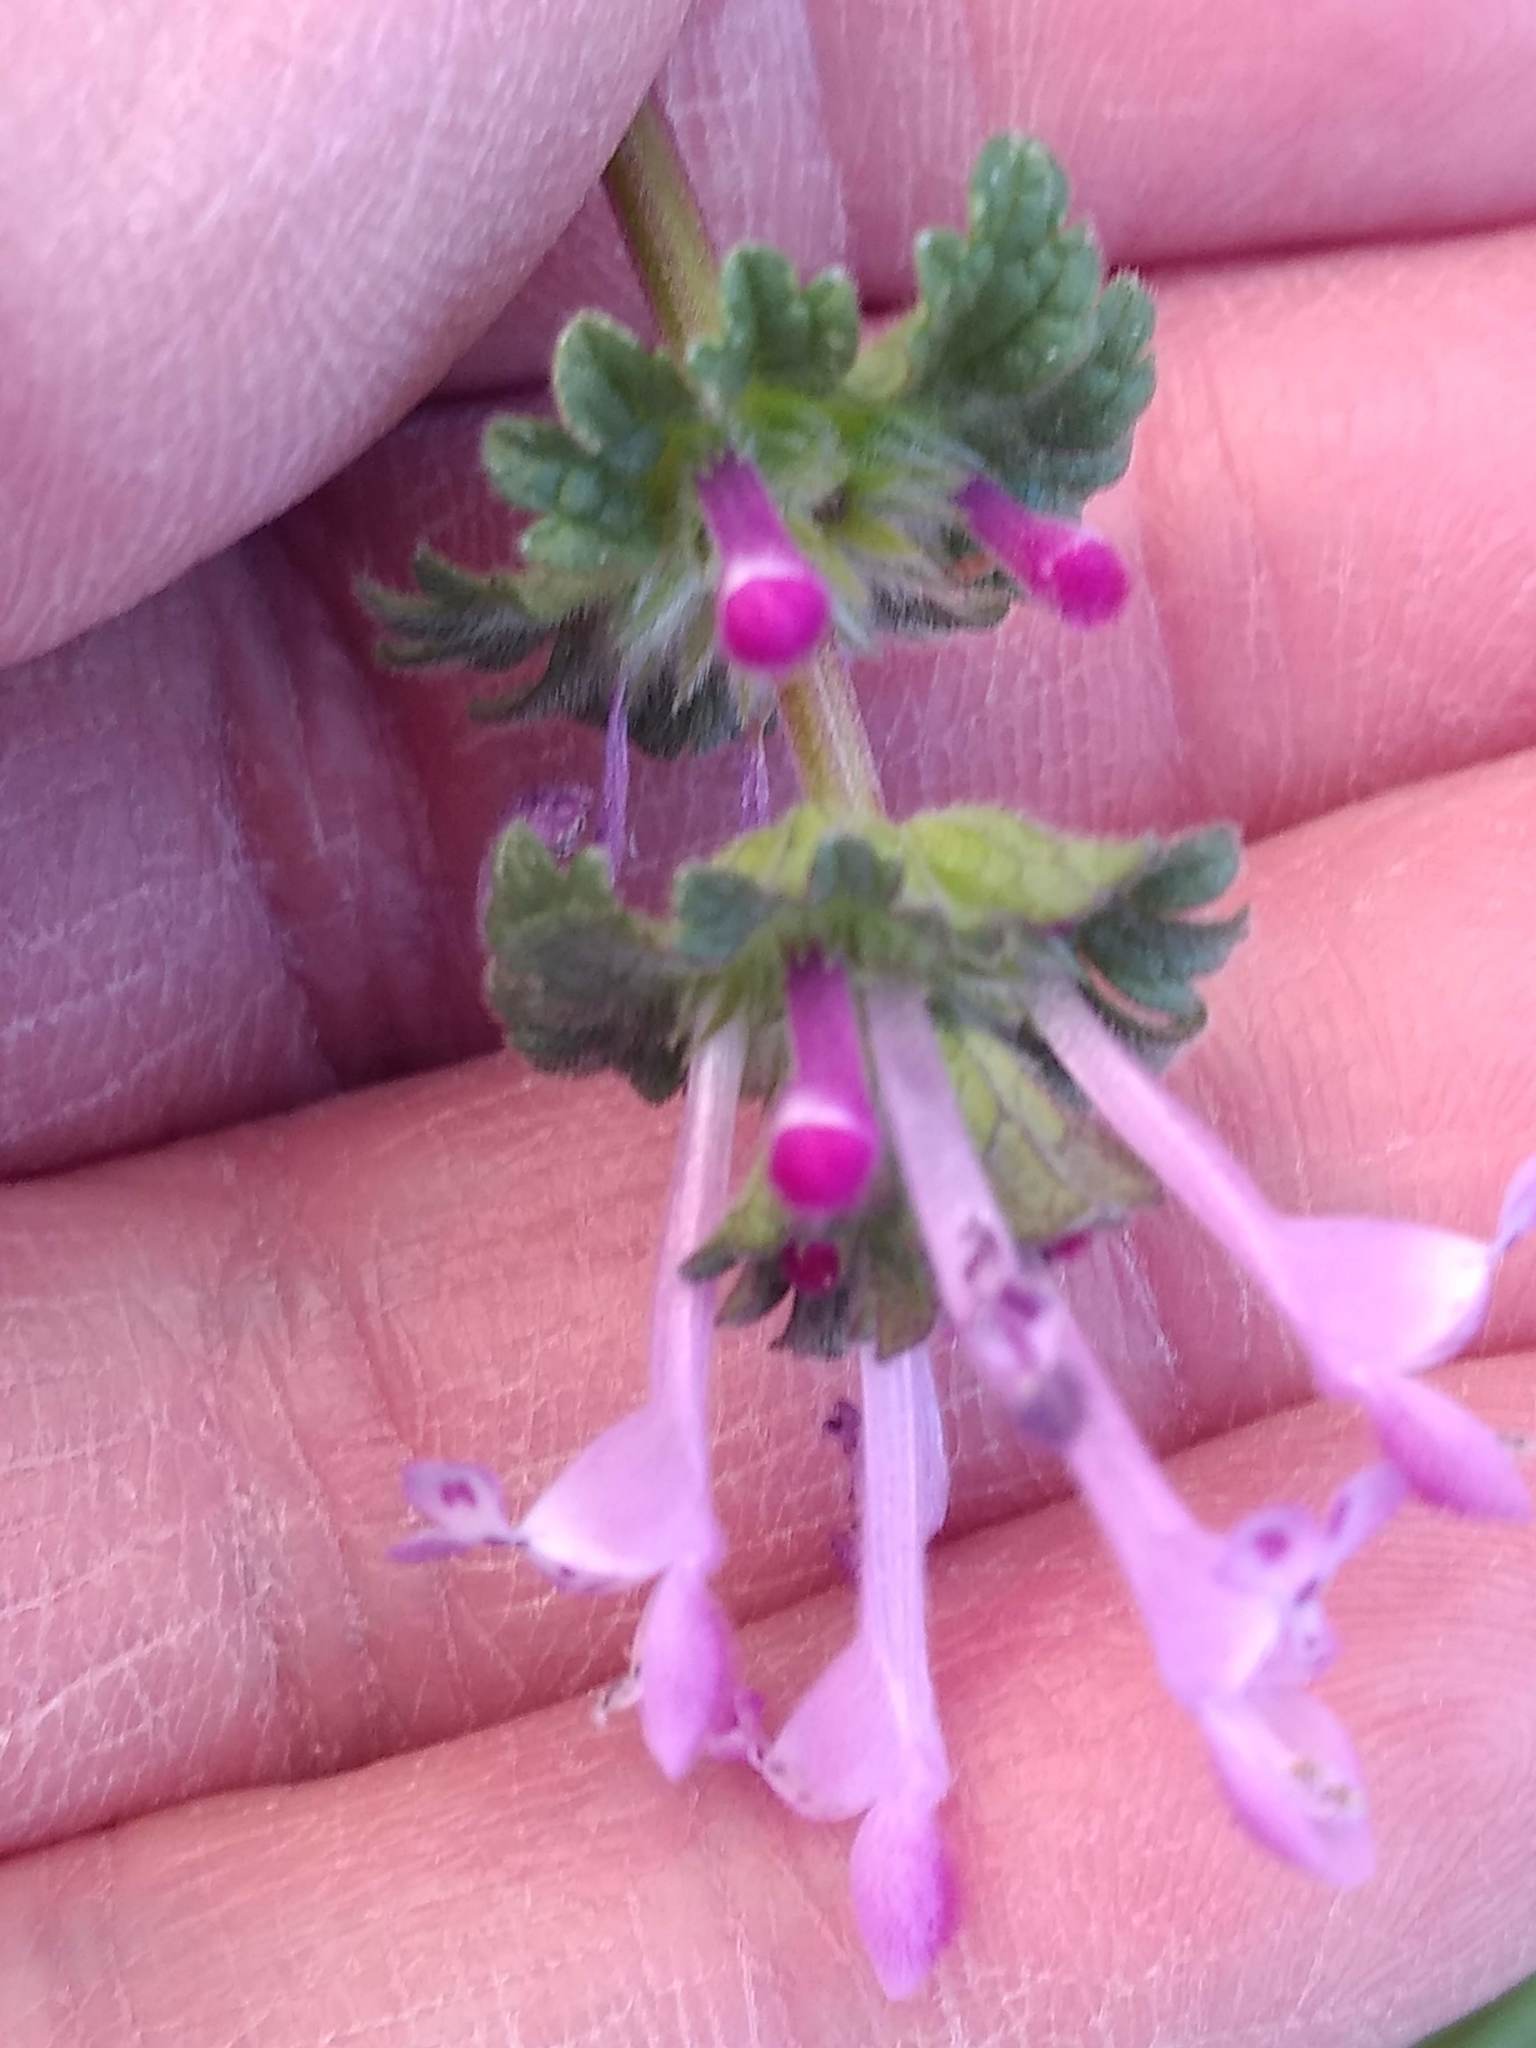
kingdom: Plantae
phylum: Tracheophyta
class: Magnoliopsida
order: Lamiales
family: Lamiaceae
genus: Lamium
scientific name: Lamium amplexicaule
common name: Henbit dead-nettle
